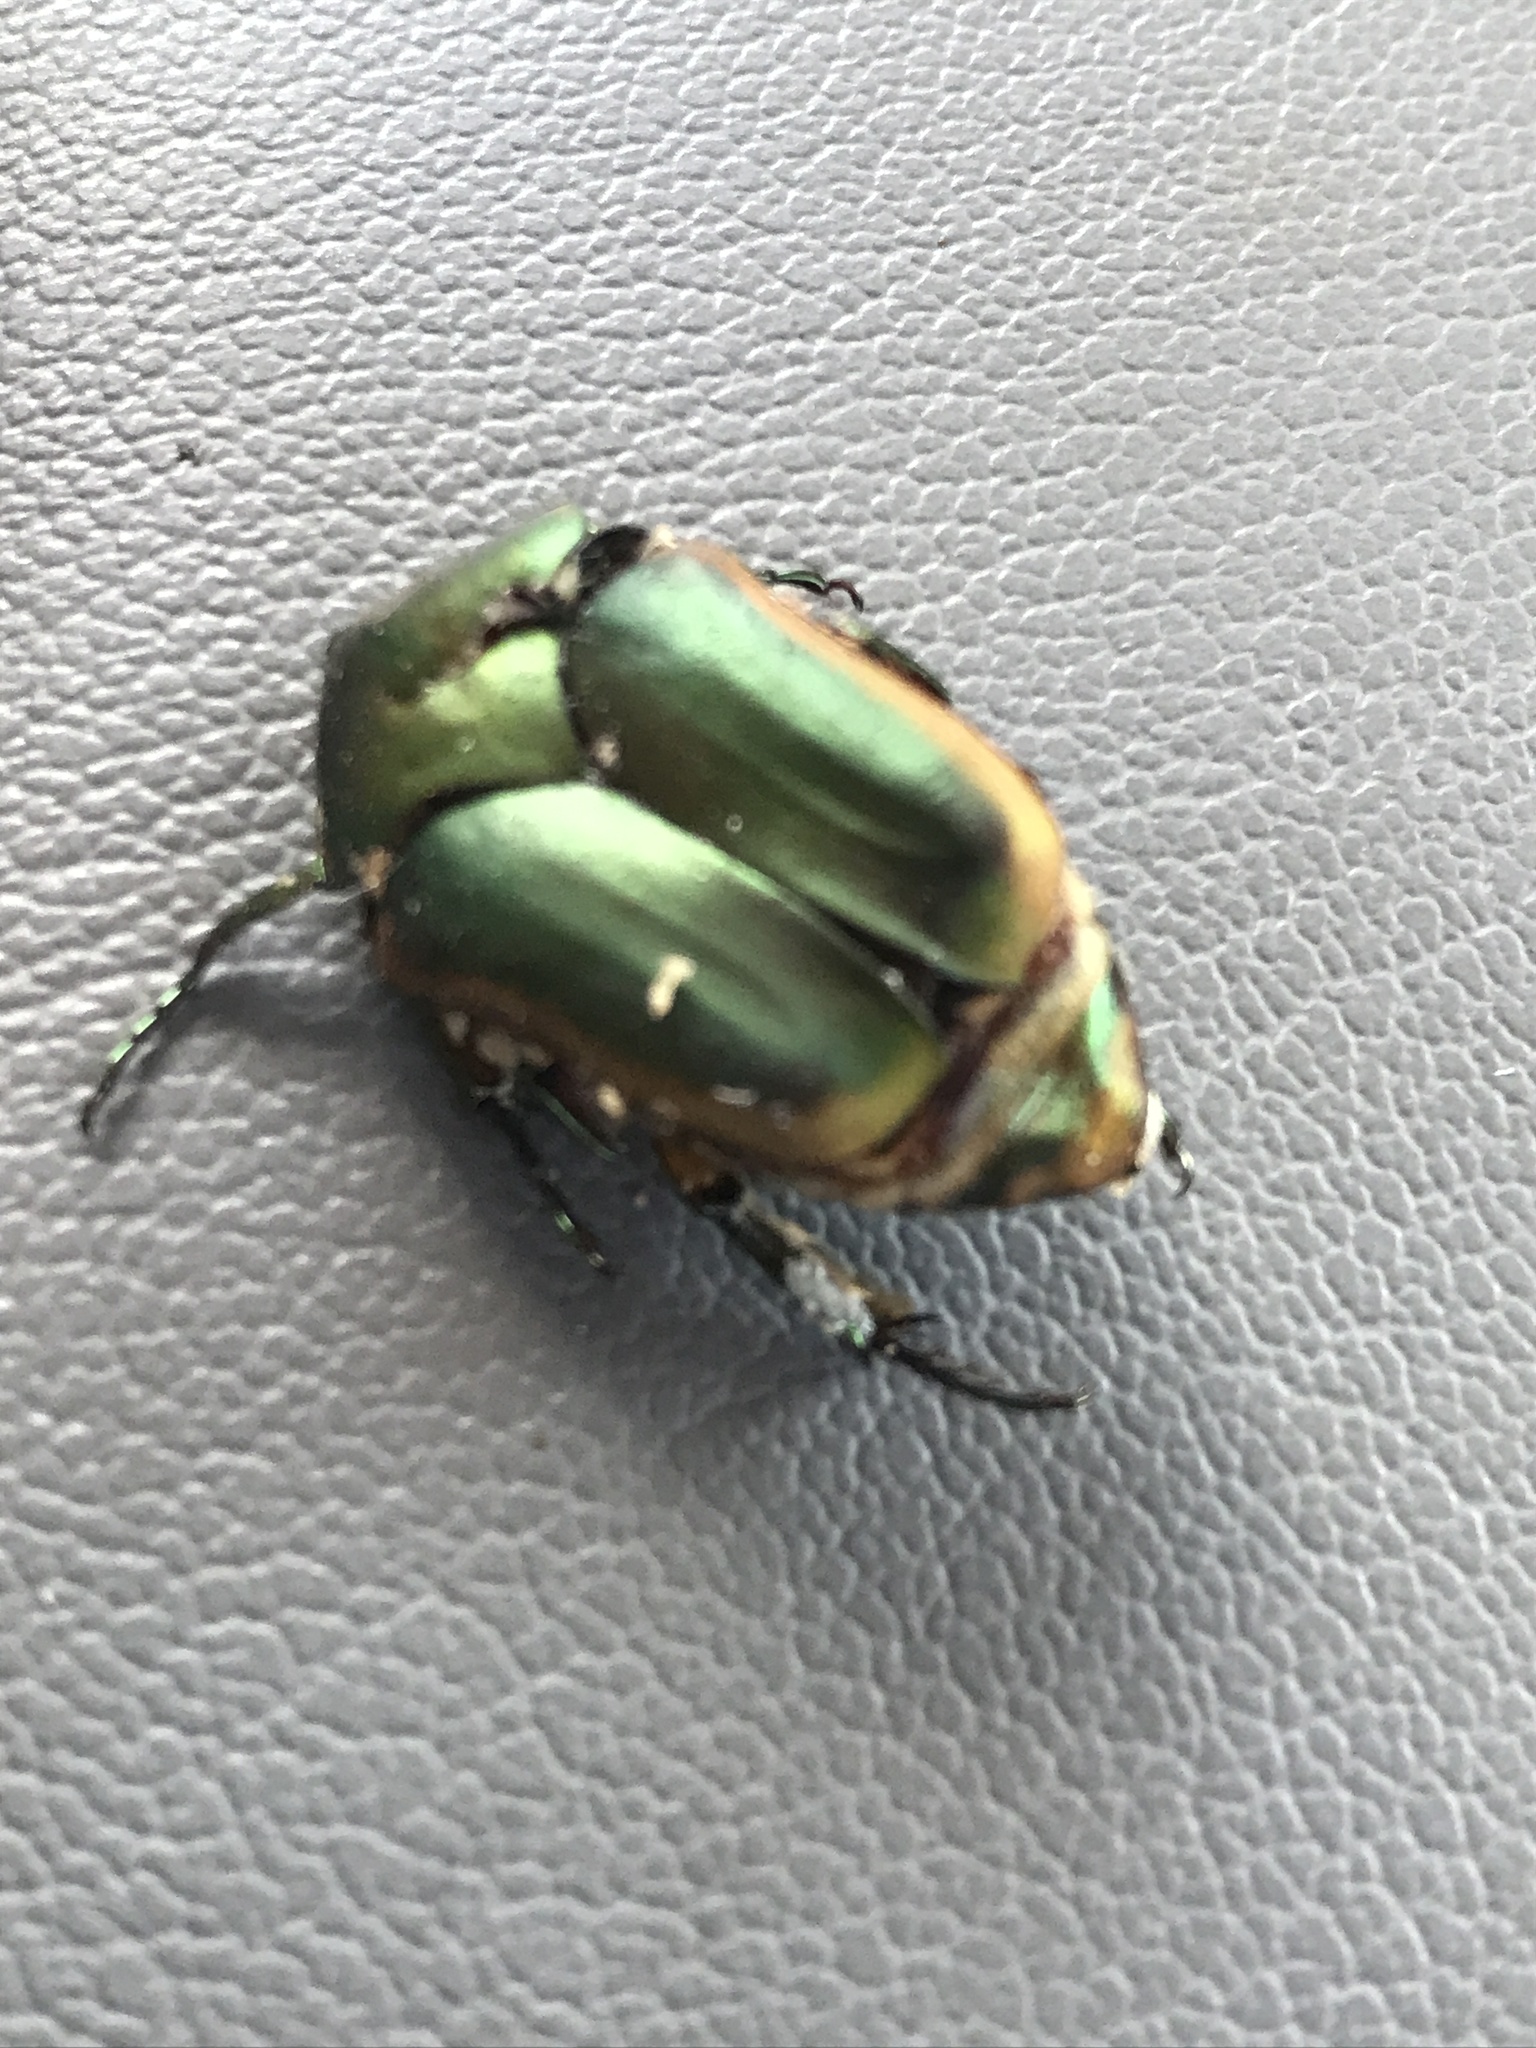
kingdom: Animalia
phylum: Arthropoda
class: Insecta
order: Coleoptera
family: Scarabaeidae
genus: Cotinis
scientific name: Cotinis nitida
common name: Common green june beetle
